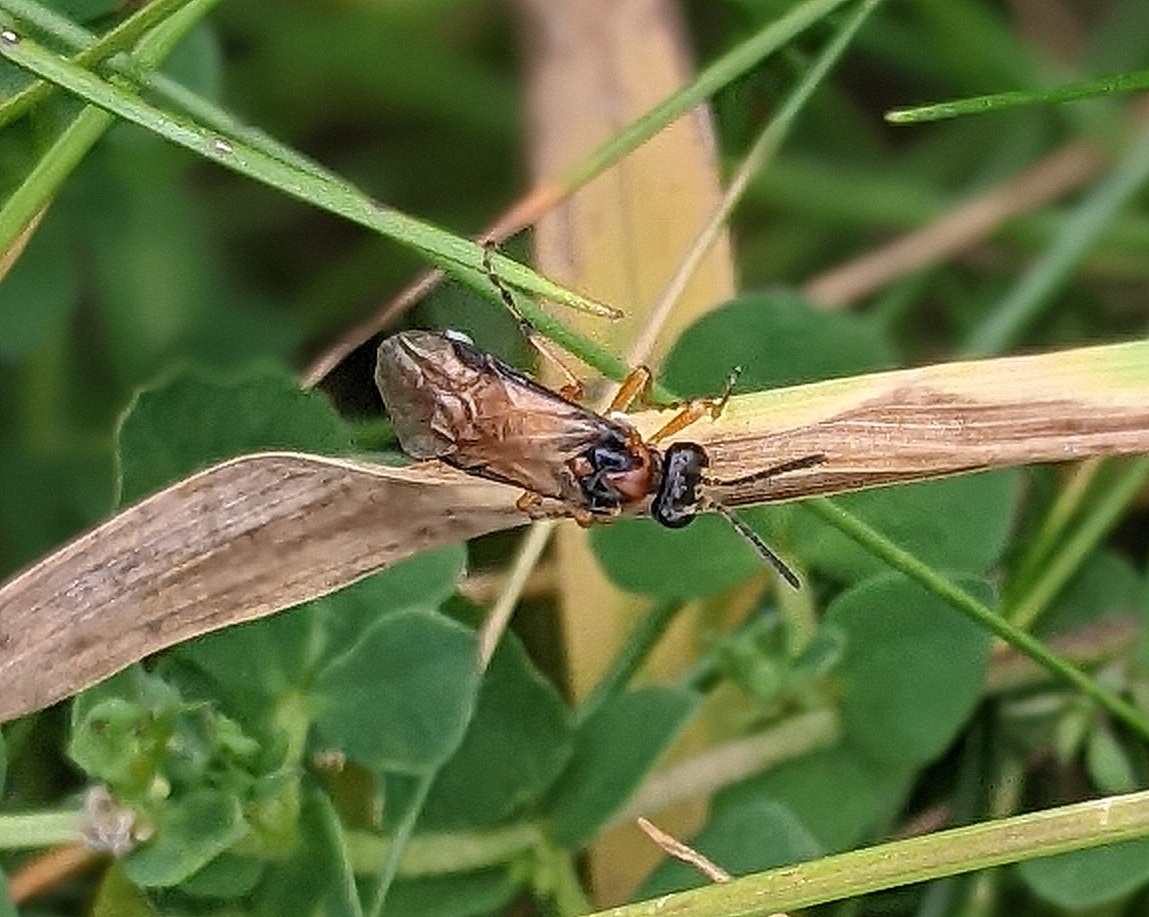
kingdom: Animalia
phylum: Arthropoda
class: Insecta
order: Hymenoptera
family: Tenthredinidae
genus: Athalia
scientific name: Athalia rosae
